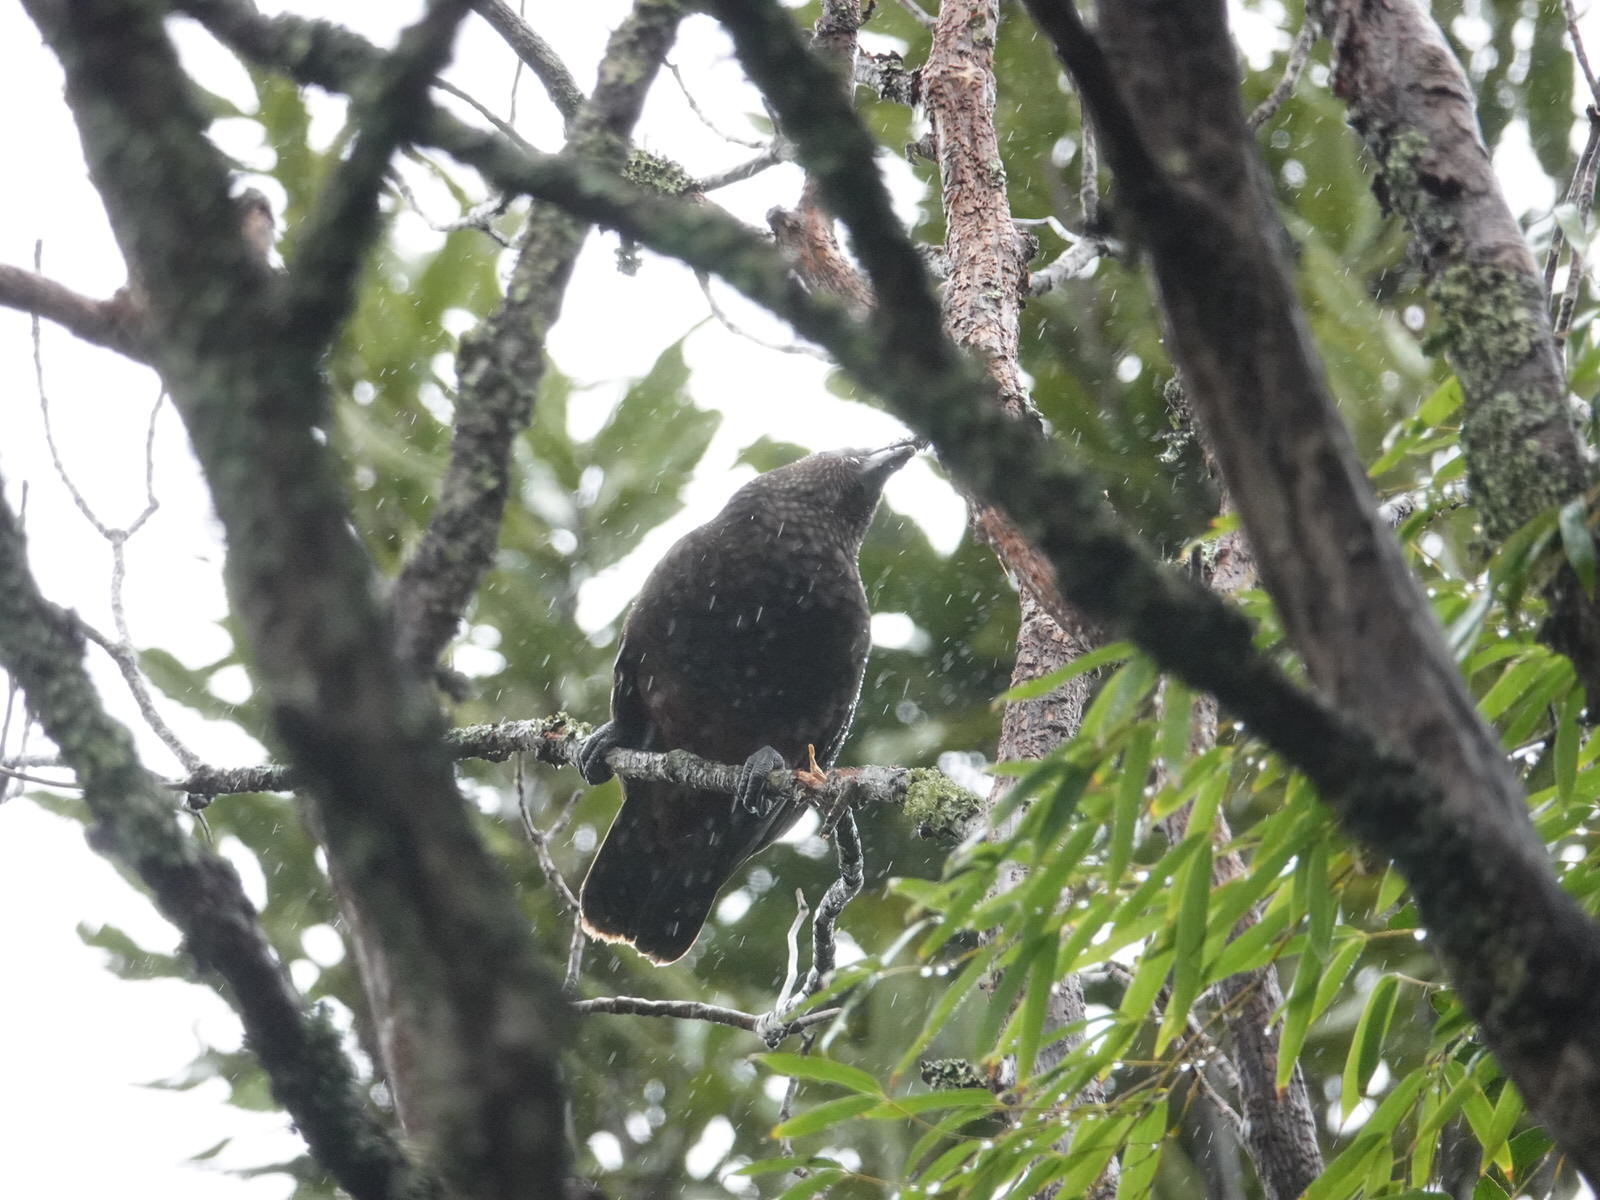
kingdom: Animalia
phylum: Chordata
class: Aves
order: Psittaciformes
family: Psittacidae
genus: Nestor
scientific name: Nestor meridionalis
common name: New zealand kaka
